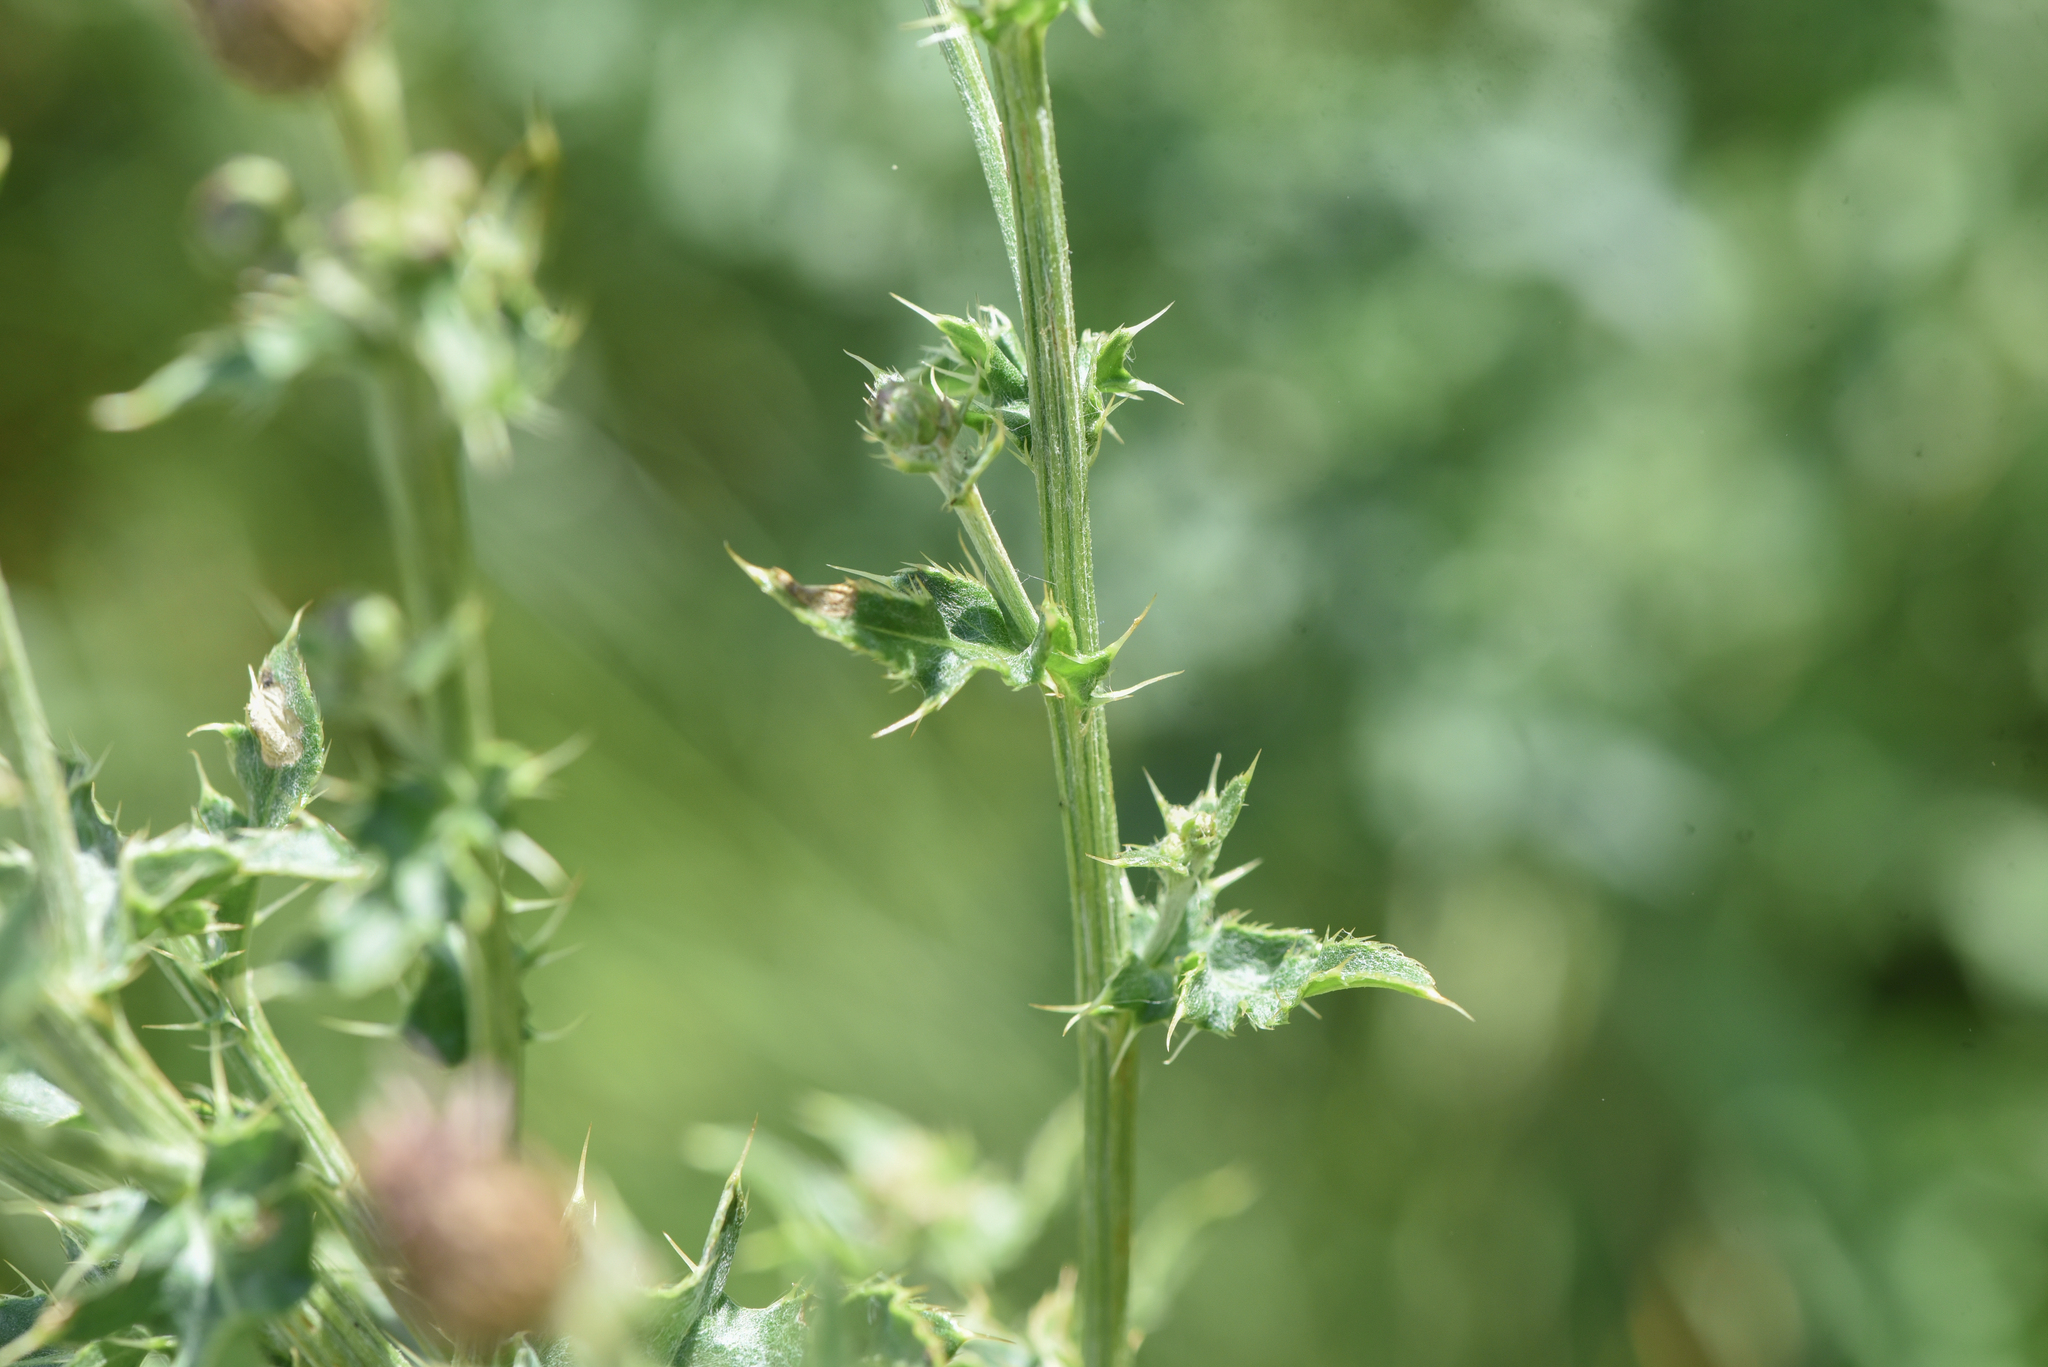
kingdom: Plantae
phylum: Tracheophyta
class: Magnoliopsida
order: Asterales
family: Asteraceae
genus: Cirsium
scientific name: Cirsium arvense
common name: Creeping thistle
